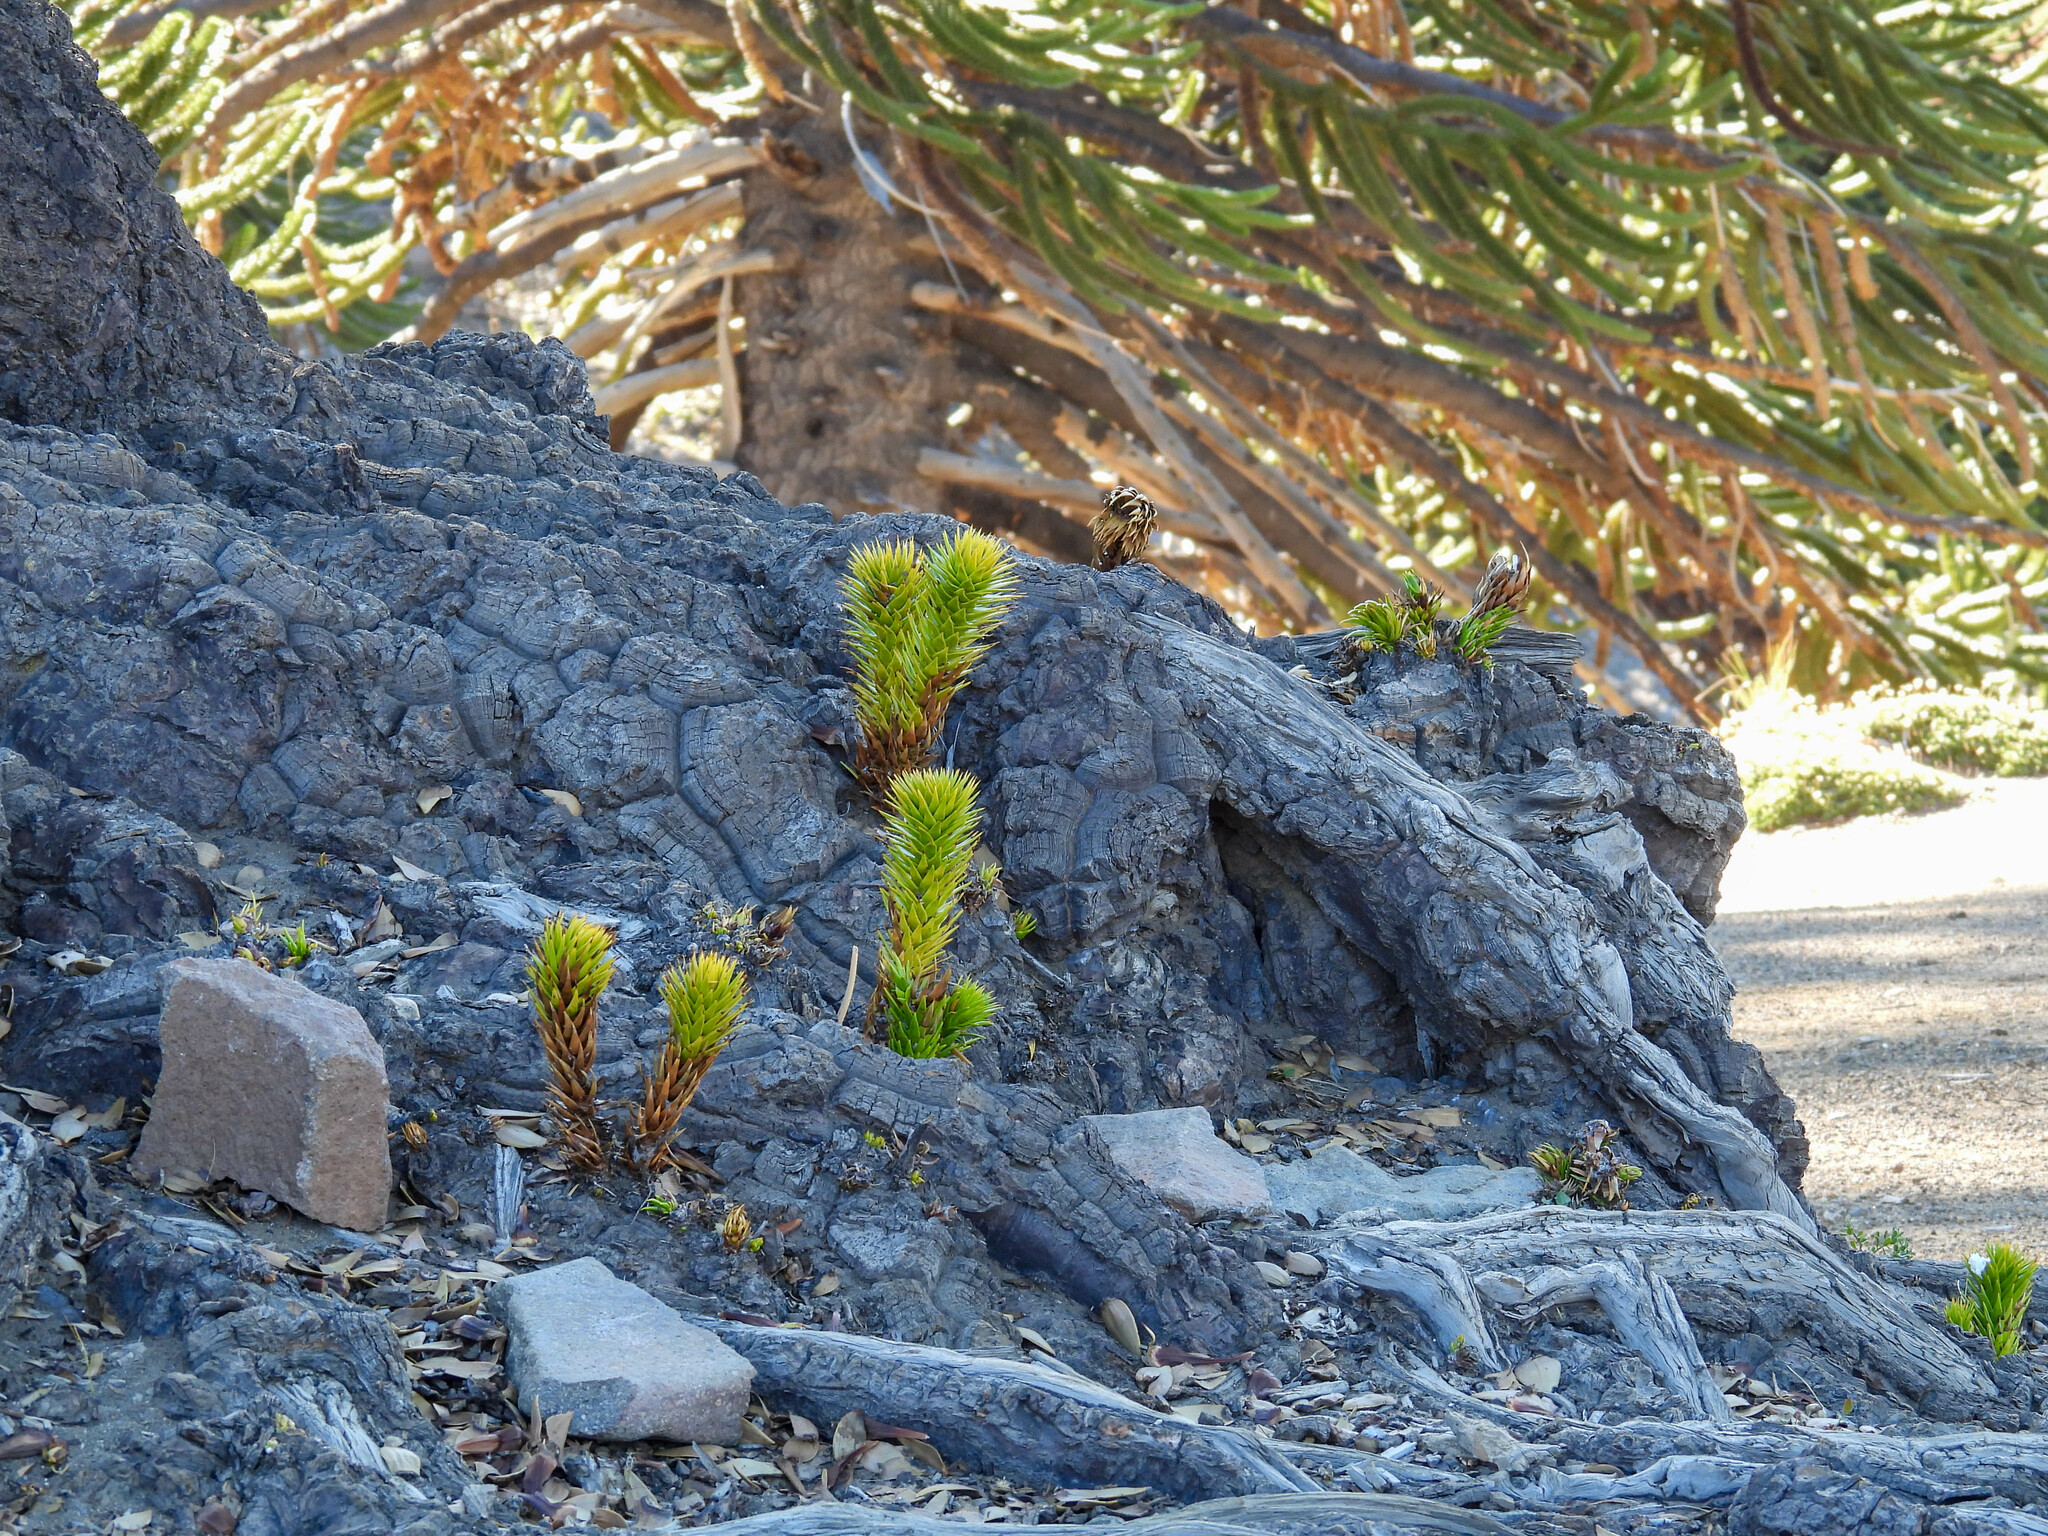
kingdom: Plantae
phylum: Tracheophyta
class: Pinopsida
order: Pinales
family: Araucariaceae
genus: Araucaria
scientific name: Araucaria araucana
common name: Monkey-puzzle
